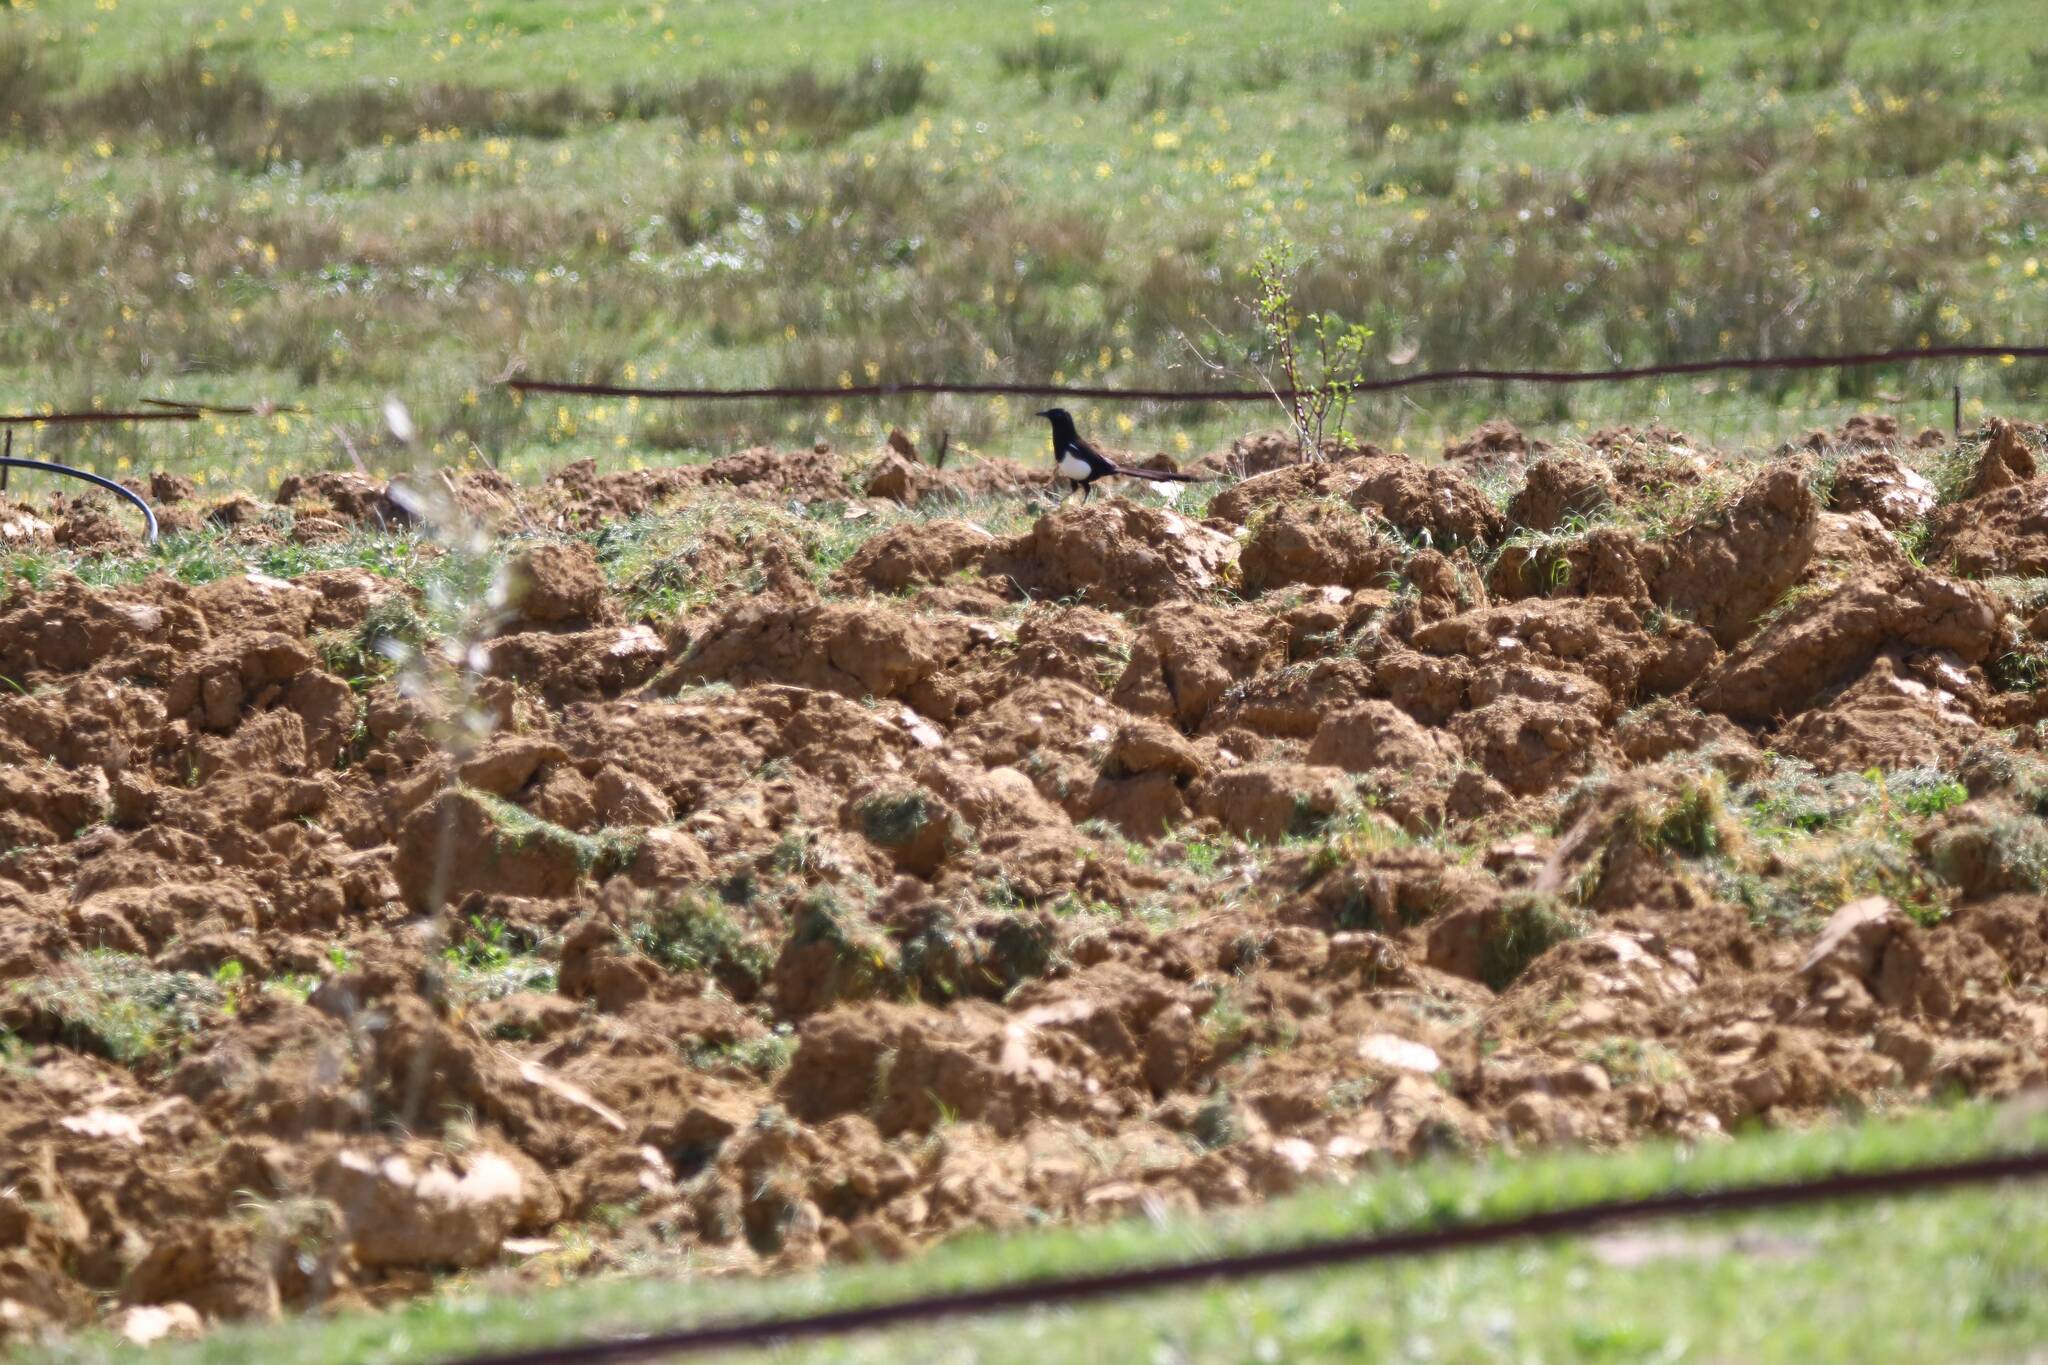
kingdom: Animalia
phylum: Chordata
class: Aves
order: Passeriformes
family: Corvidae
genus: Pica
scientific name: Pica mauritanica
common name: Maghreb magpie
